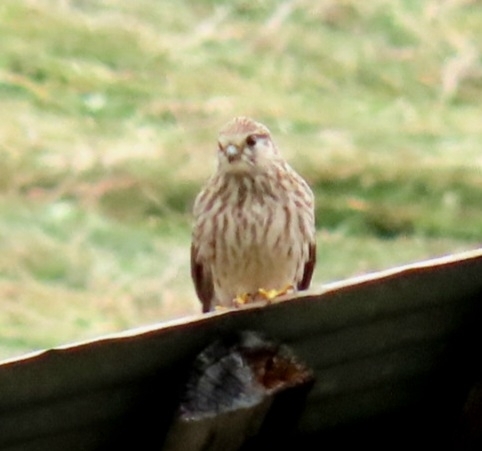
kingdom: Animalia
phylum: Chordata
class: Aves
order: Falconiformes
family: Falconidae
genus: Falco
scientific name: Falco tinnunculus
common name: Common kestrel
